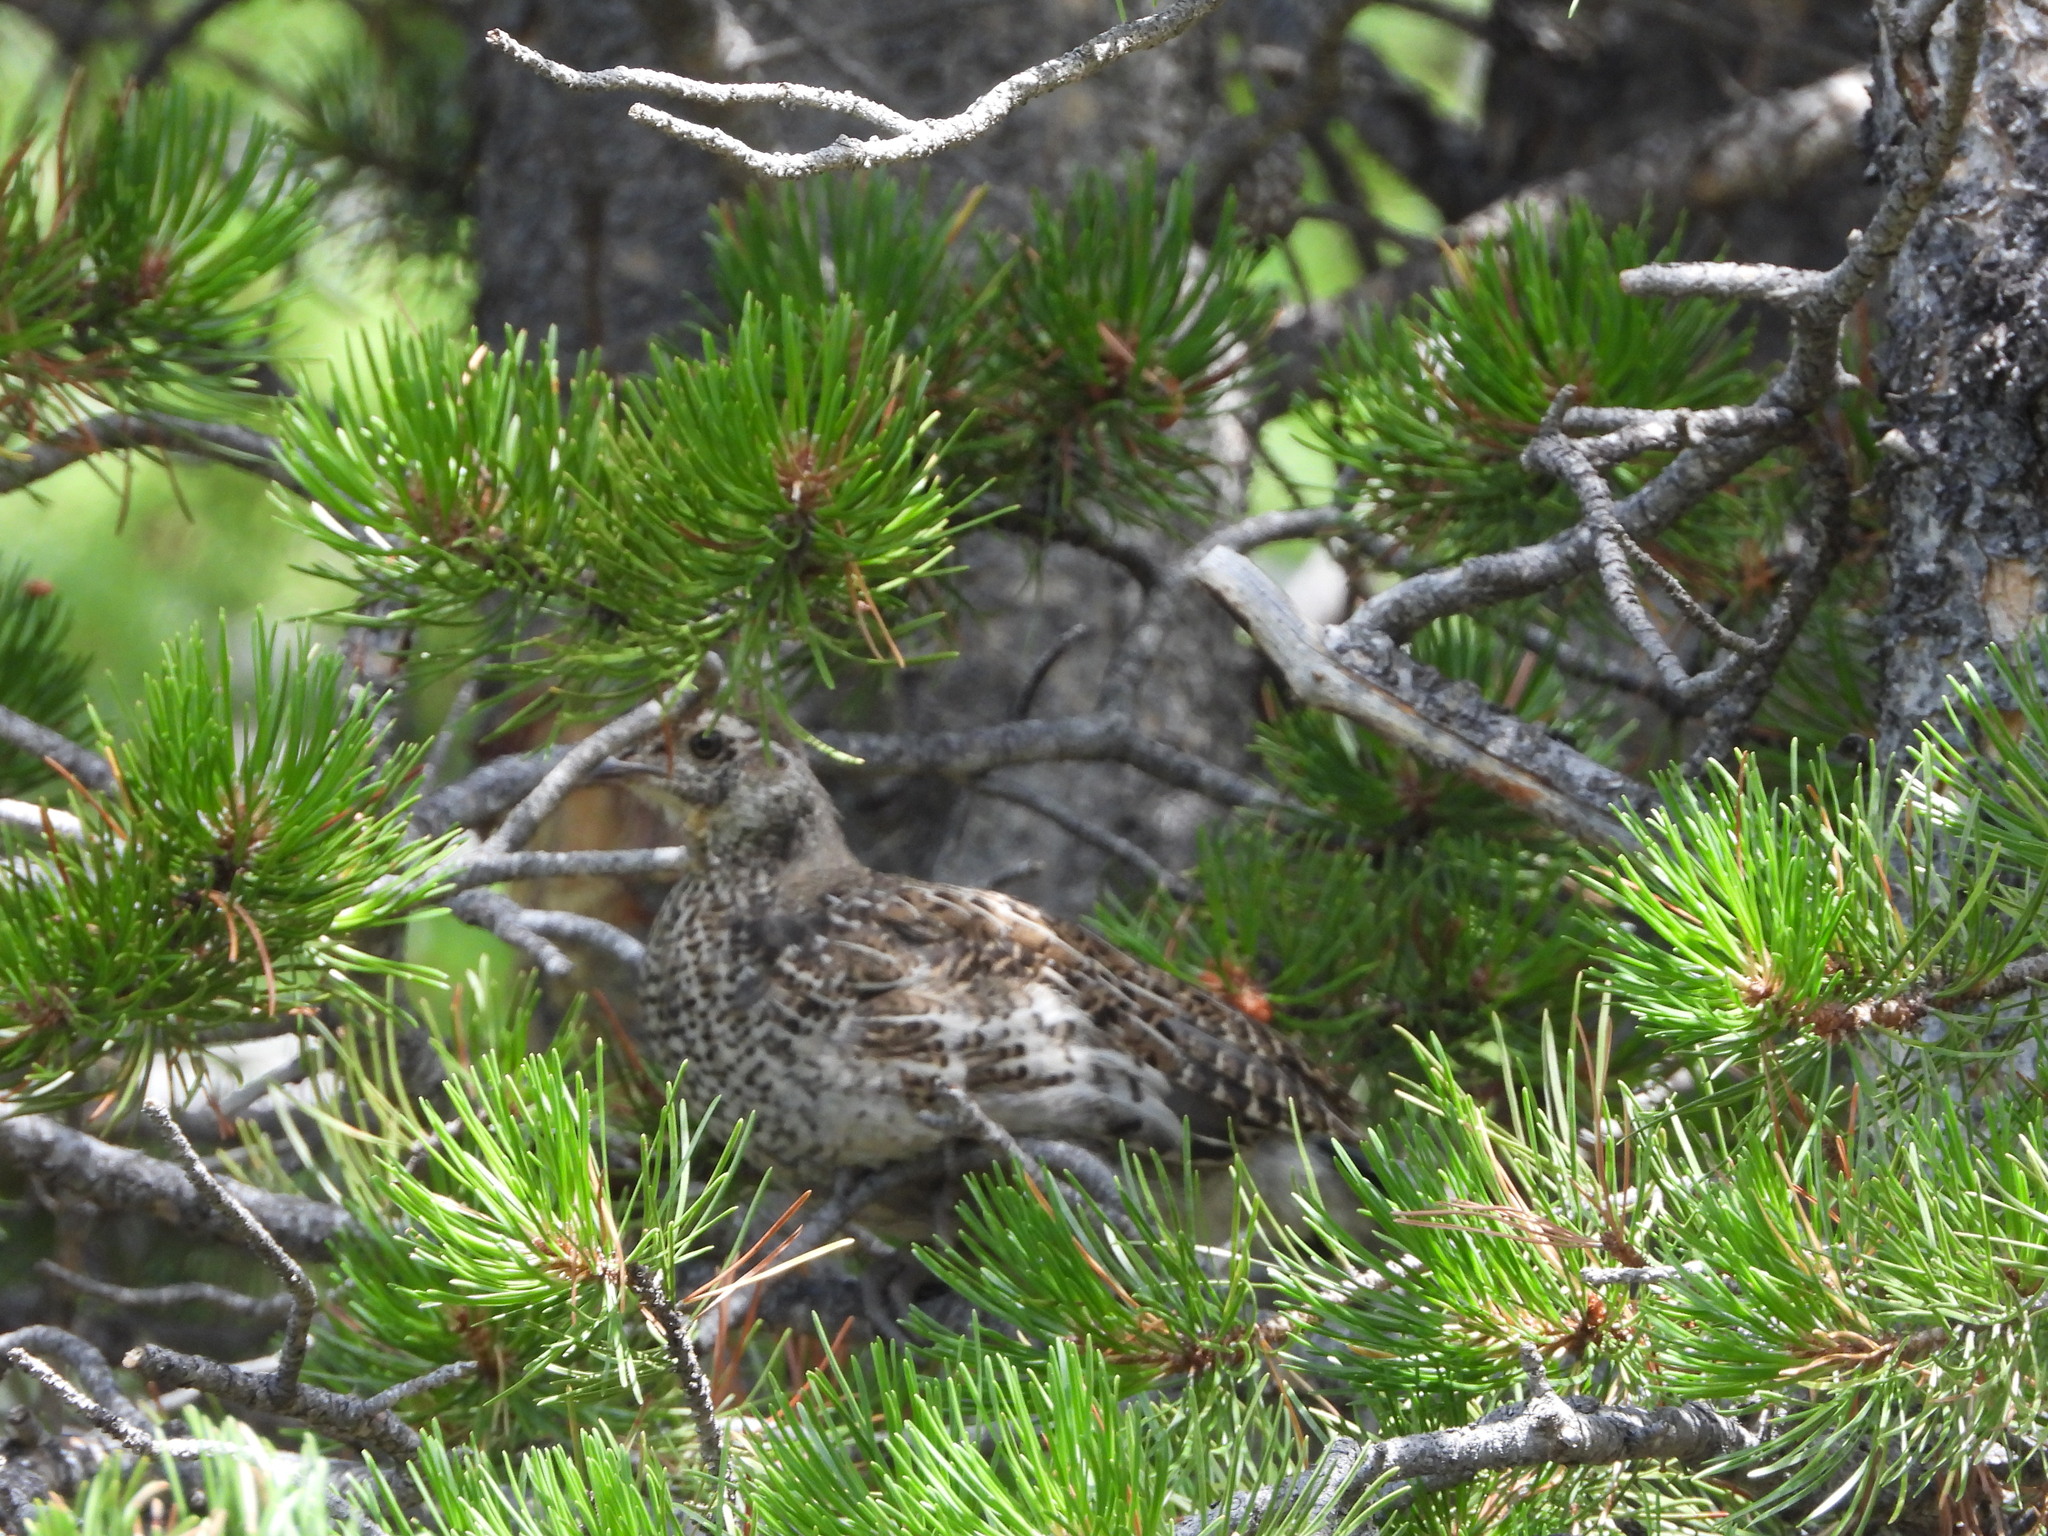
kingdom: Animalia
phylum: Chordata
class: Aves
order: Galliformes
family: Phasianidae
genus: Dendragapus
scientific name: Dendragapus obscurus
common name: Dusky grouse
